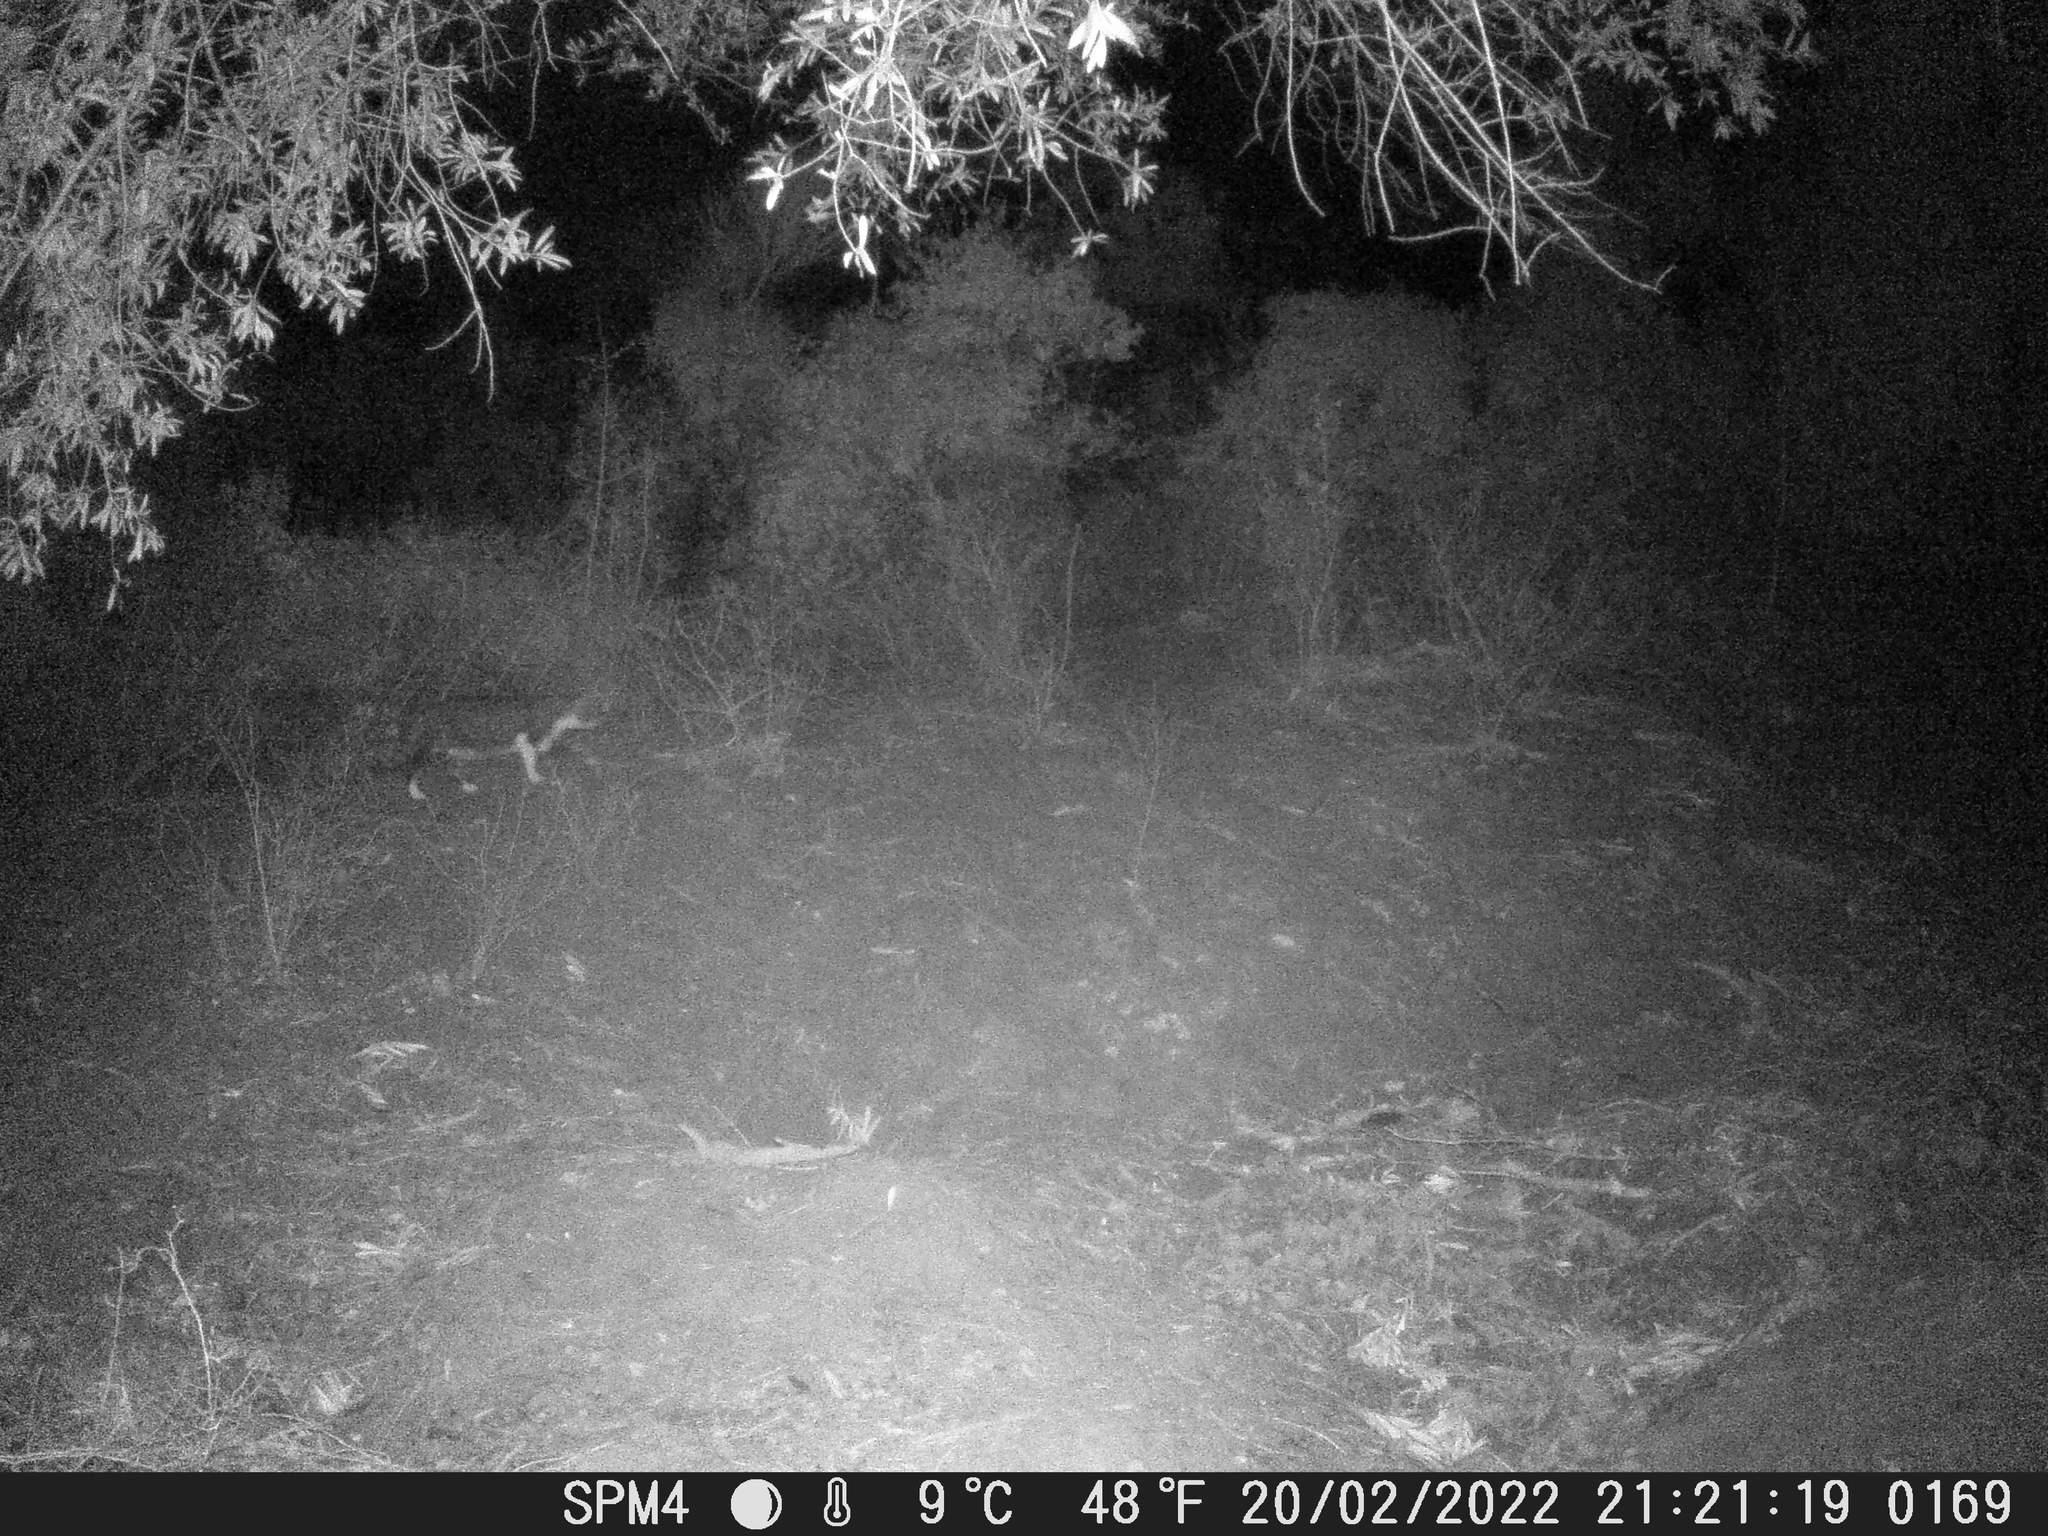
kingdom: Animalia
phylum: Chordata
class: Mammalia
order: Carnivora
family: Felidae
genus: Felis
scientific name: Felis catus
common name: Domestic cat
